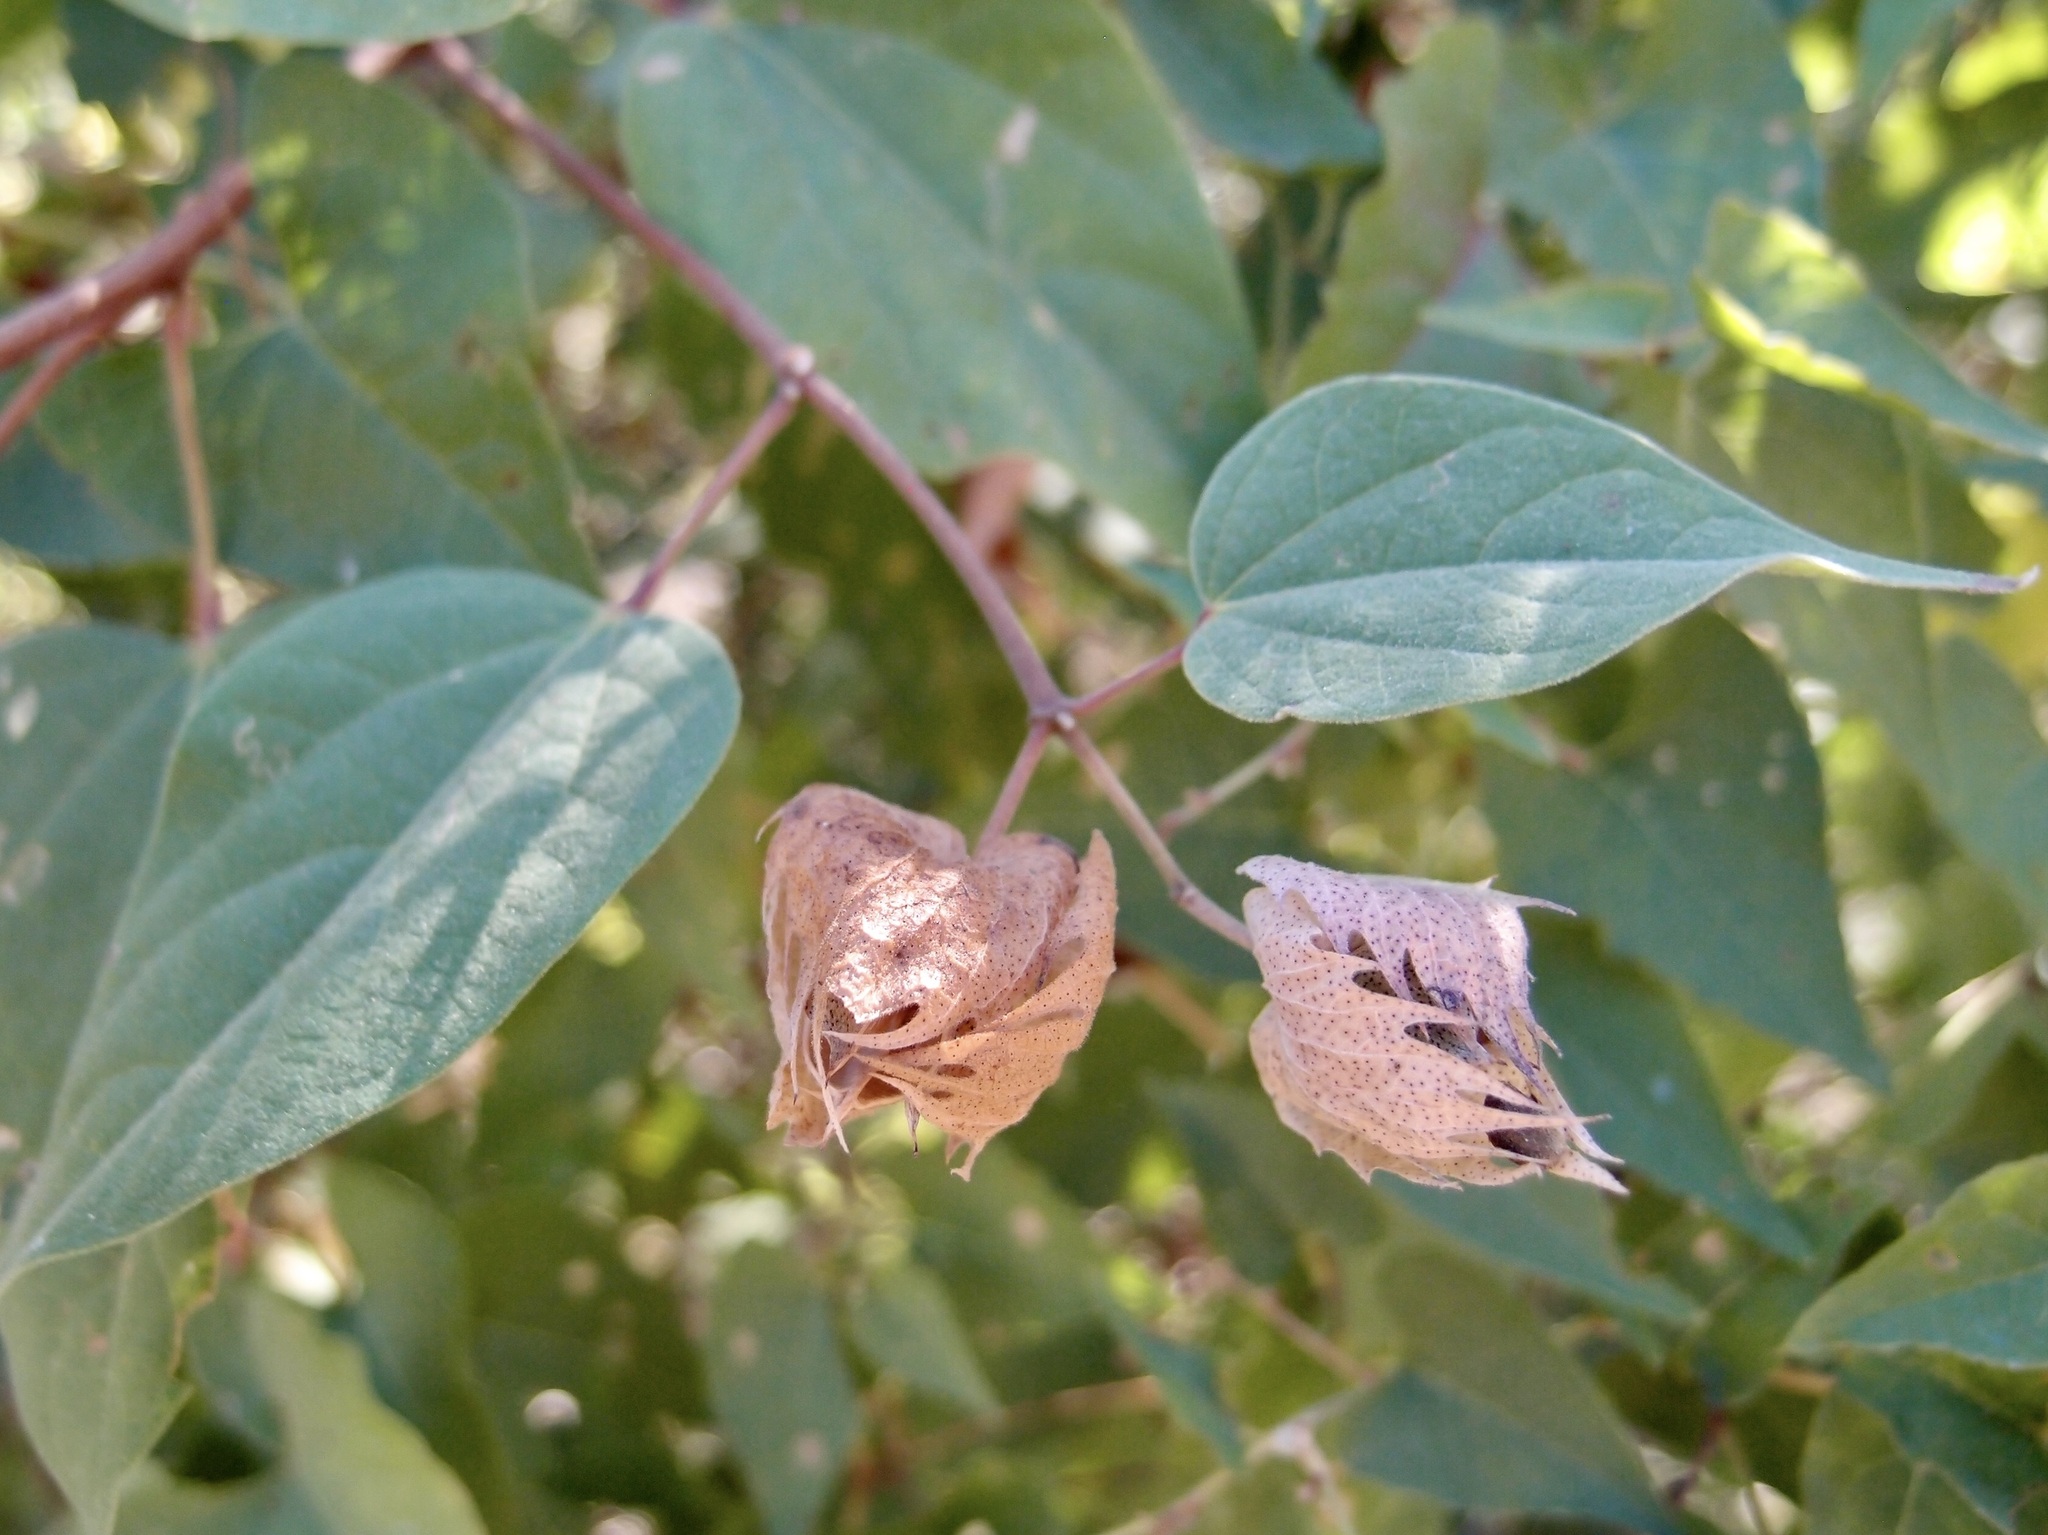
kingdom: Plantae
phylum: Tracheophyta
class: Magnoliopsida
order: Malvales
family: Malvaceae
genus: Gossypium
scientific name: Gossypium klotzschianum
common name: Galapagos cotton
